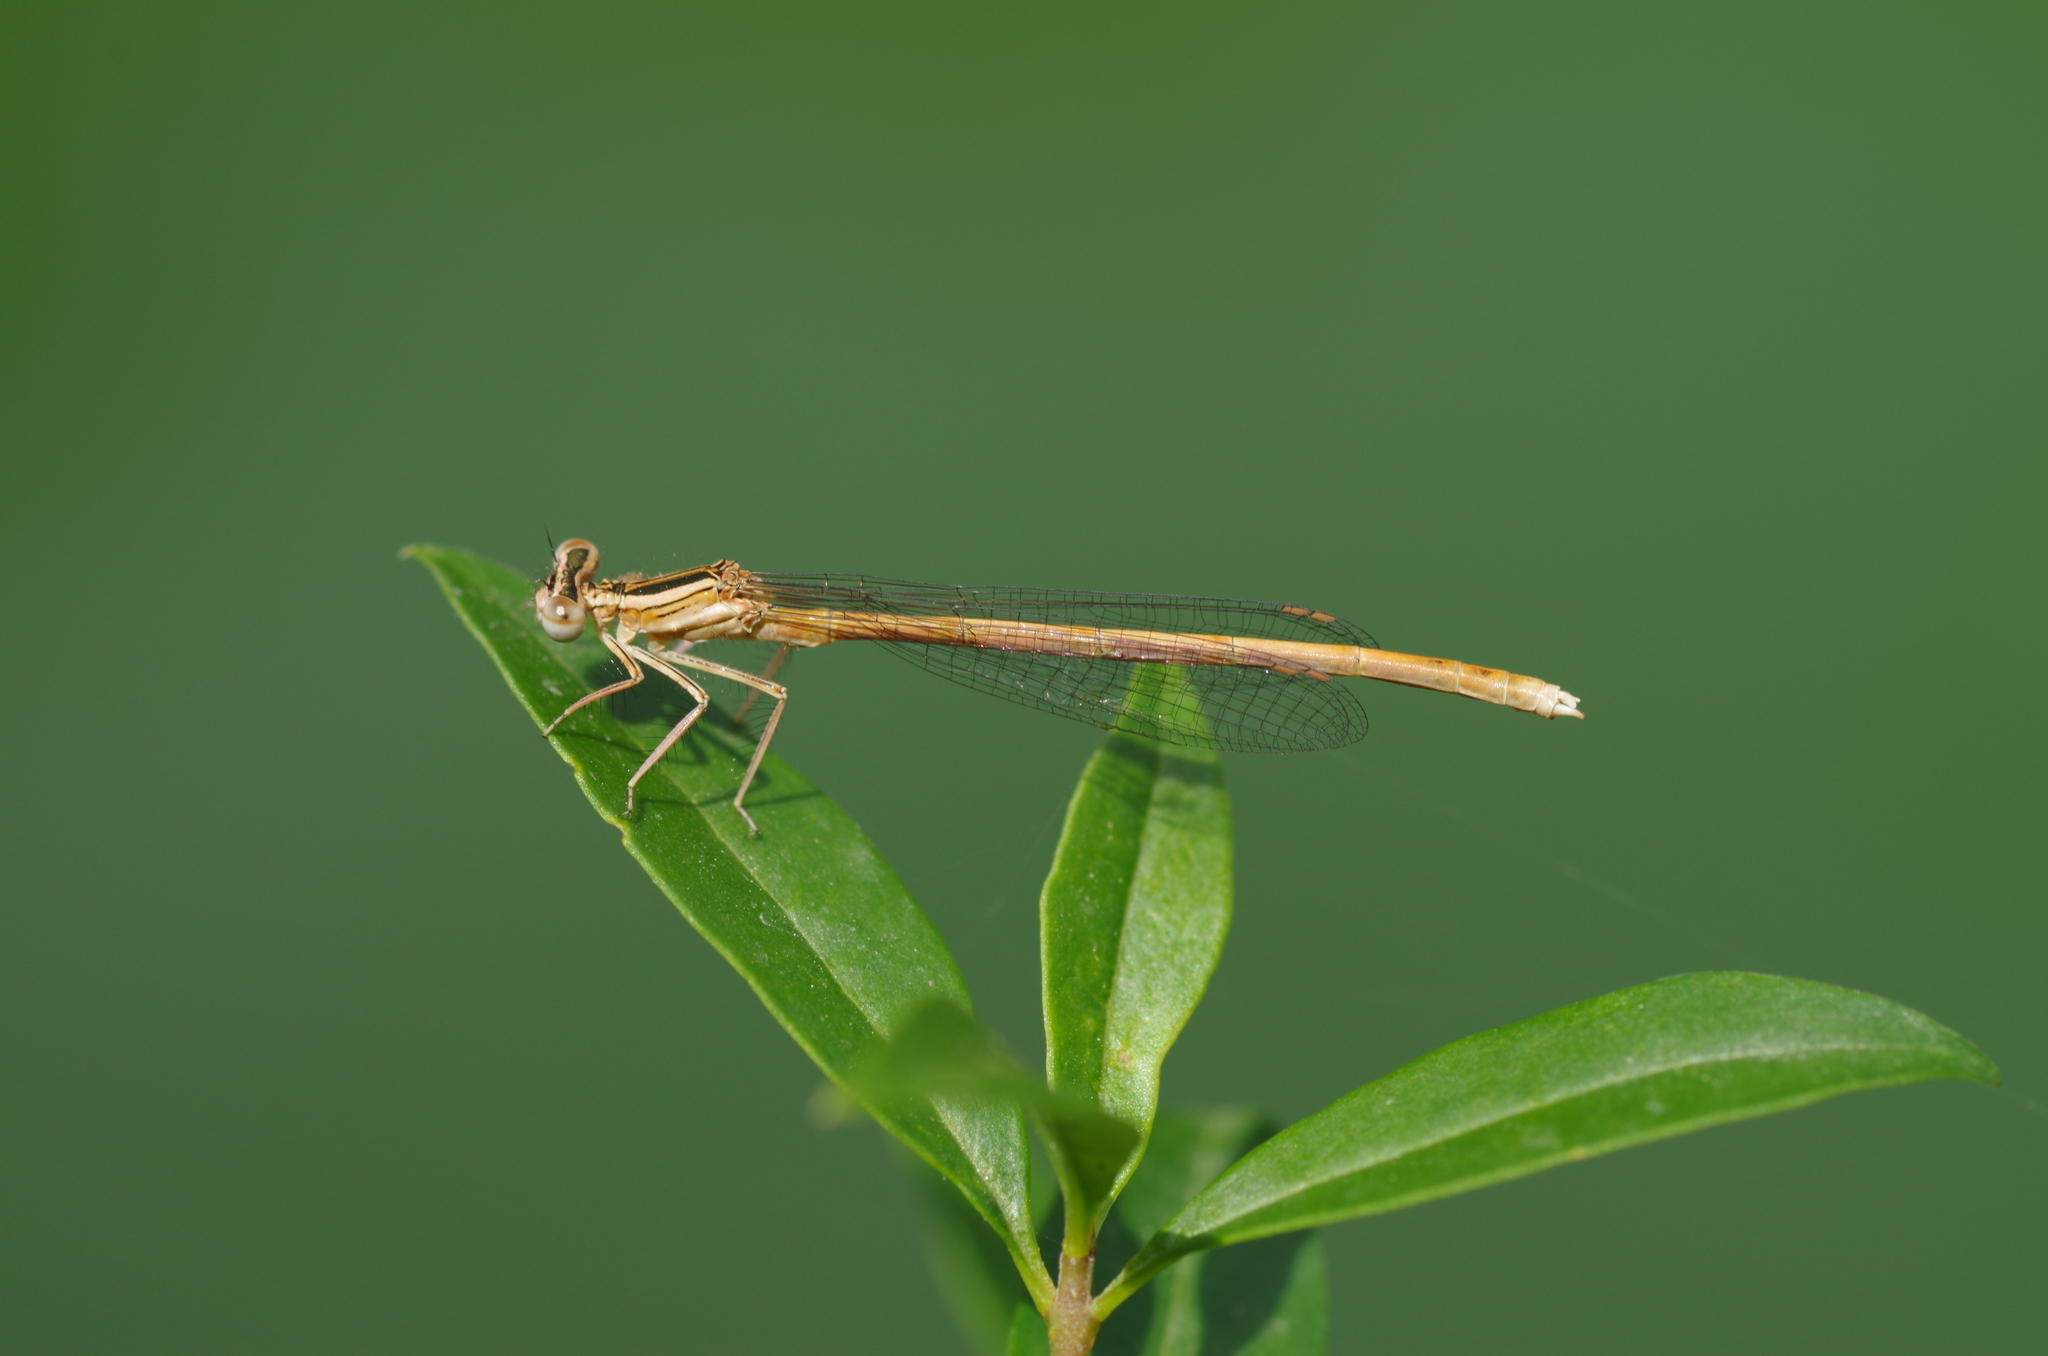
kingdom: Animalia
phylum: Arthropoda
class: Insecta
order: Odonata
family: Platycnemididae
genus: Platycnemis
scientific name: Platycnemis acutipennis
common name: Orange featherleg
